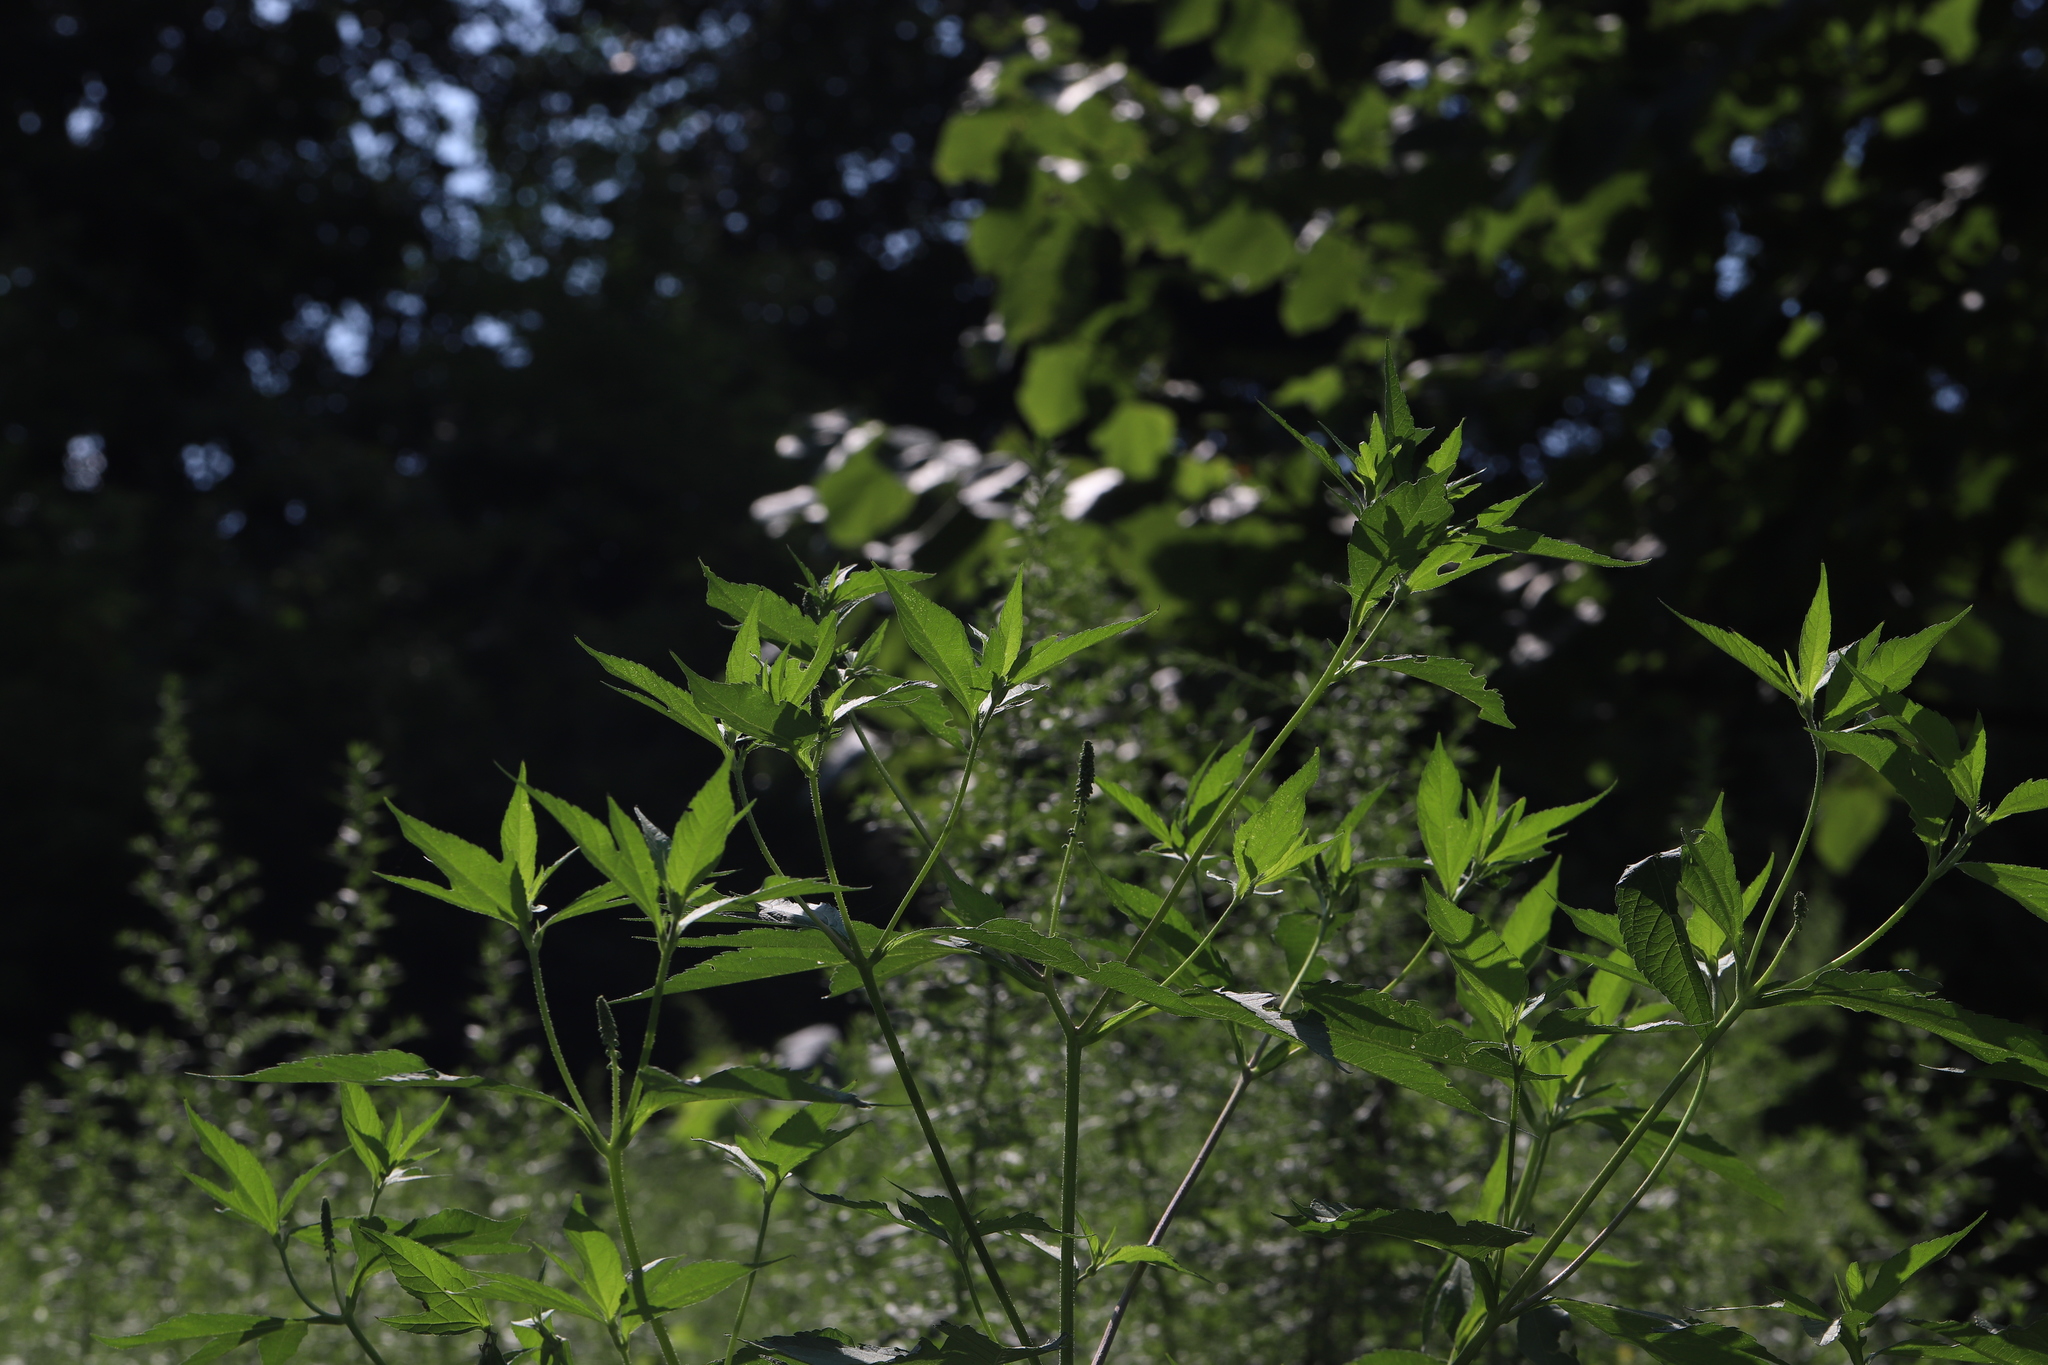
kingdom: Plantae
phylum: Tracheophyta
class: Magnoliopsida
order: Asterales
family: Asteraceae
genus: Ambrosia
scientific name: Ambrosia trifida
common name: Giant ragweed
